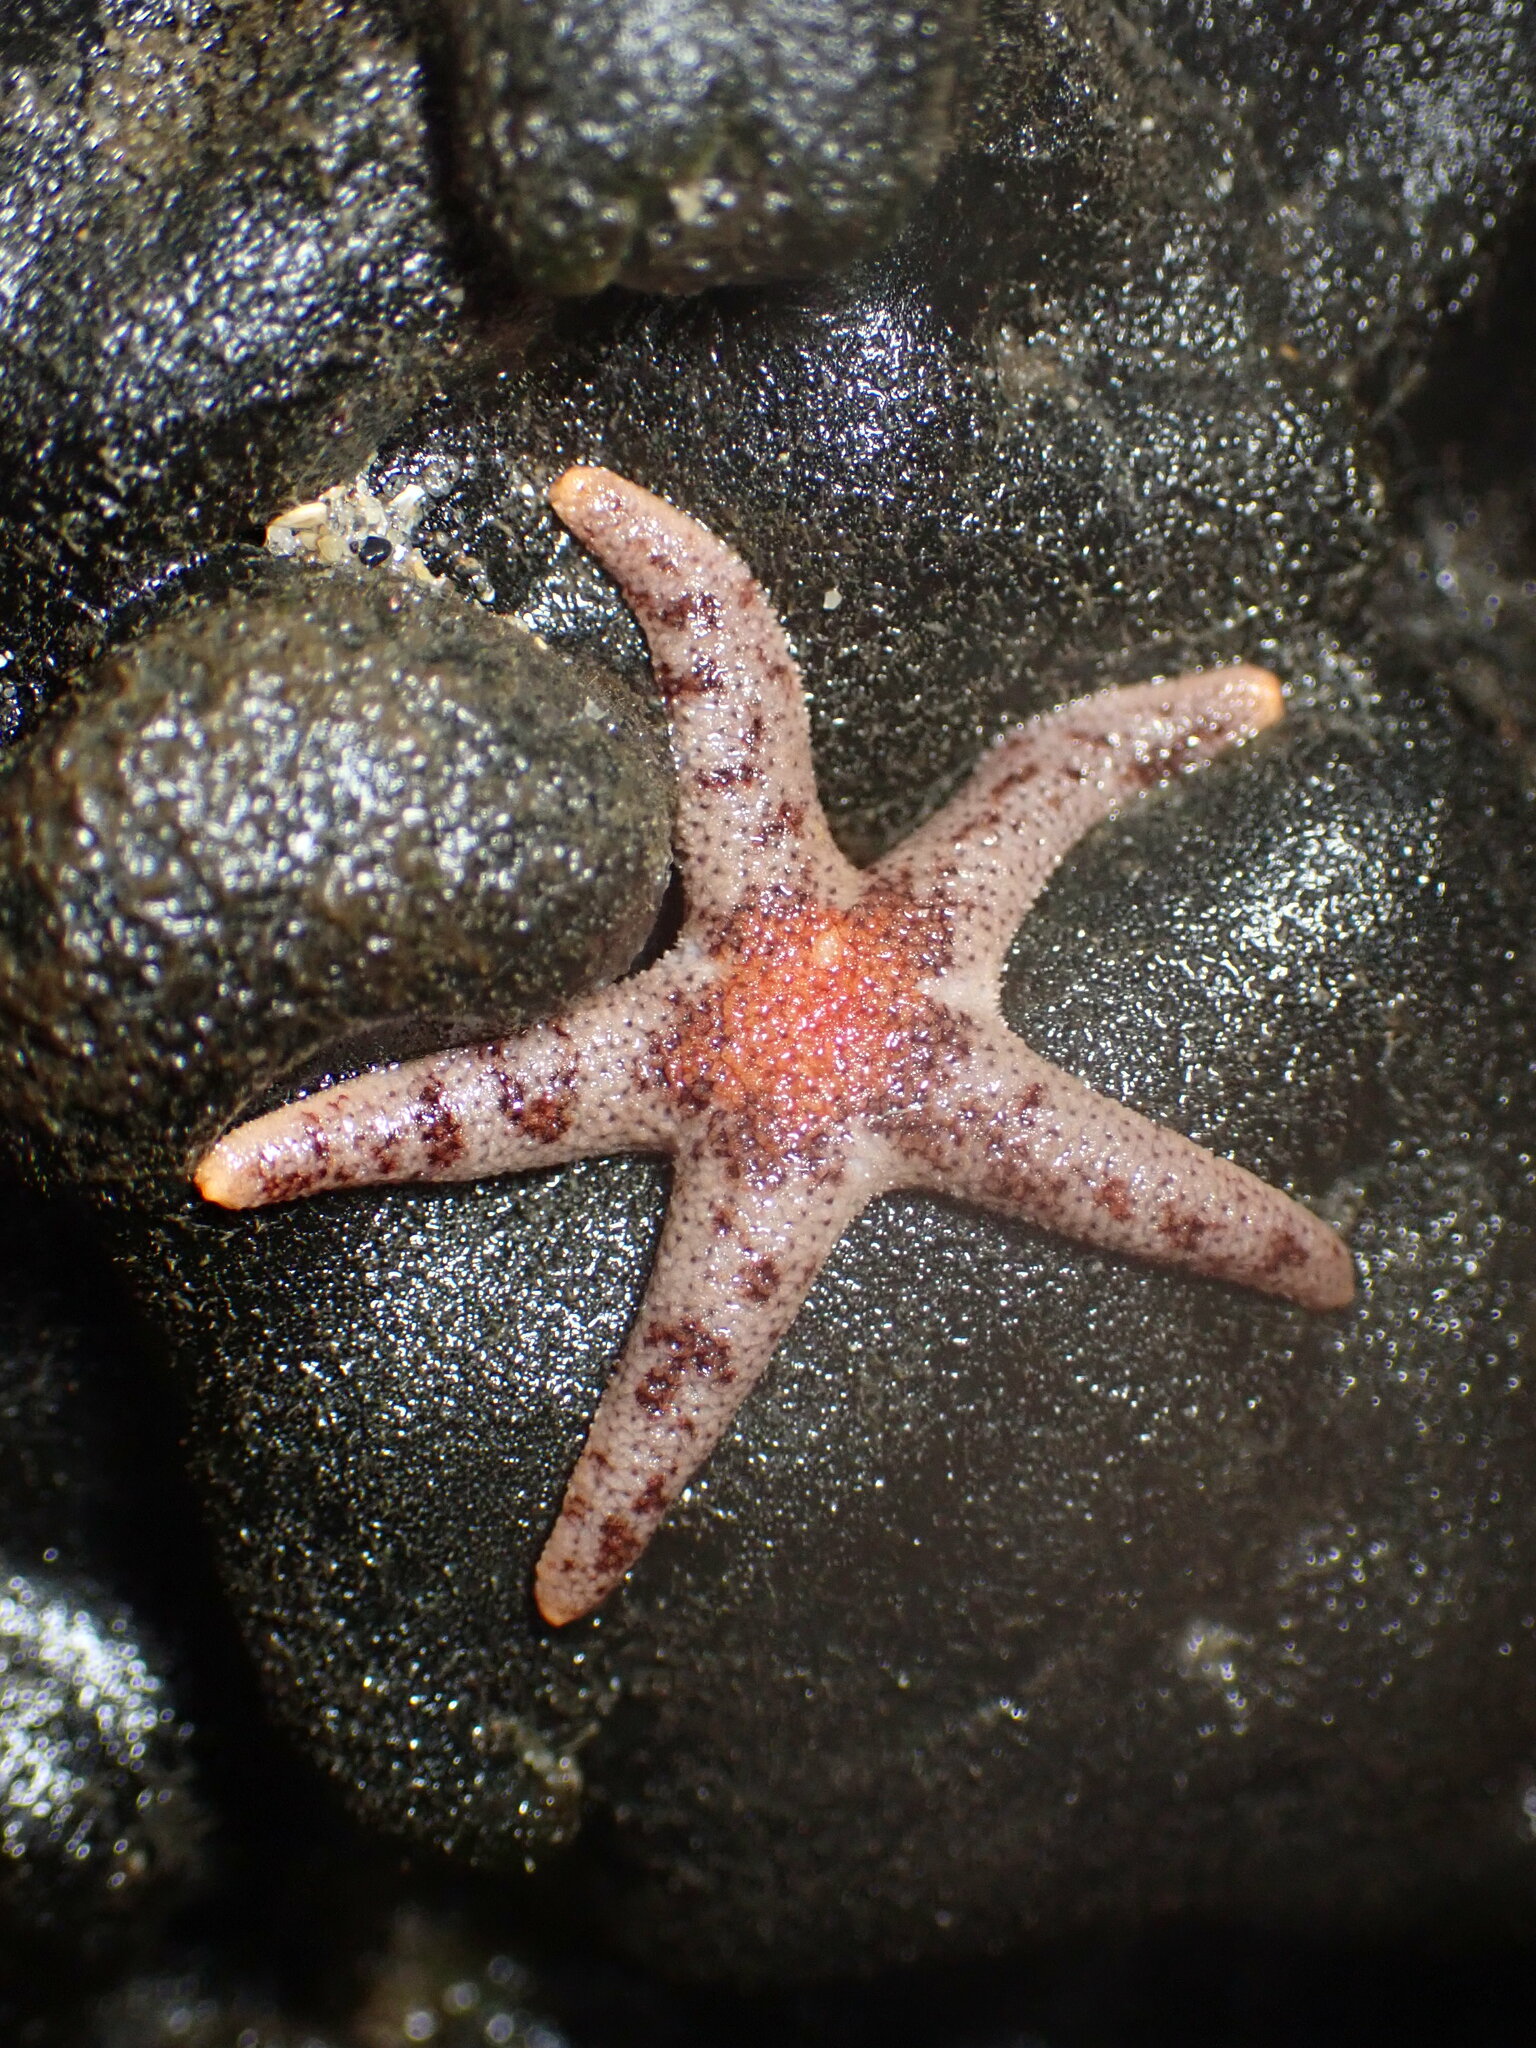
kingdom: Animalia
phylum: Echinodermata
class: Asteroidea
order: Spinulosida
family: Echinasteridae
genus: Henricia
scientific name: Henricia pumila
